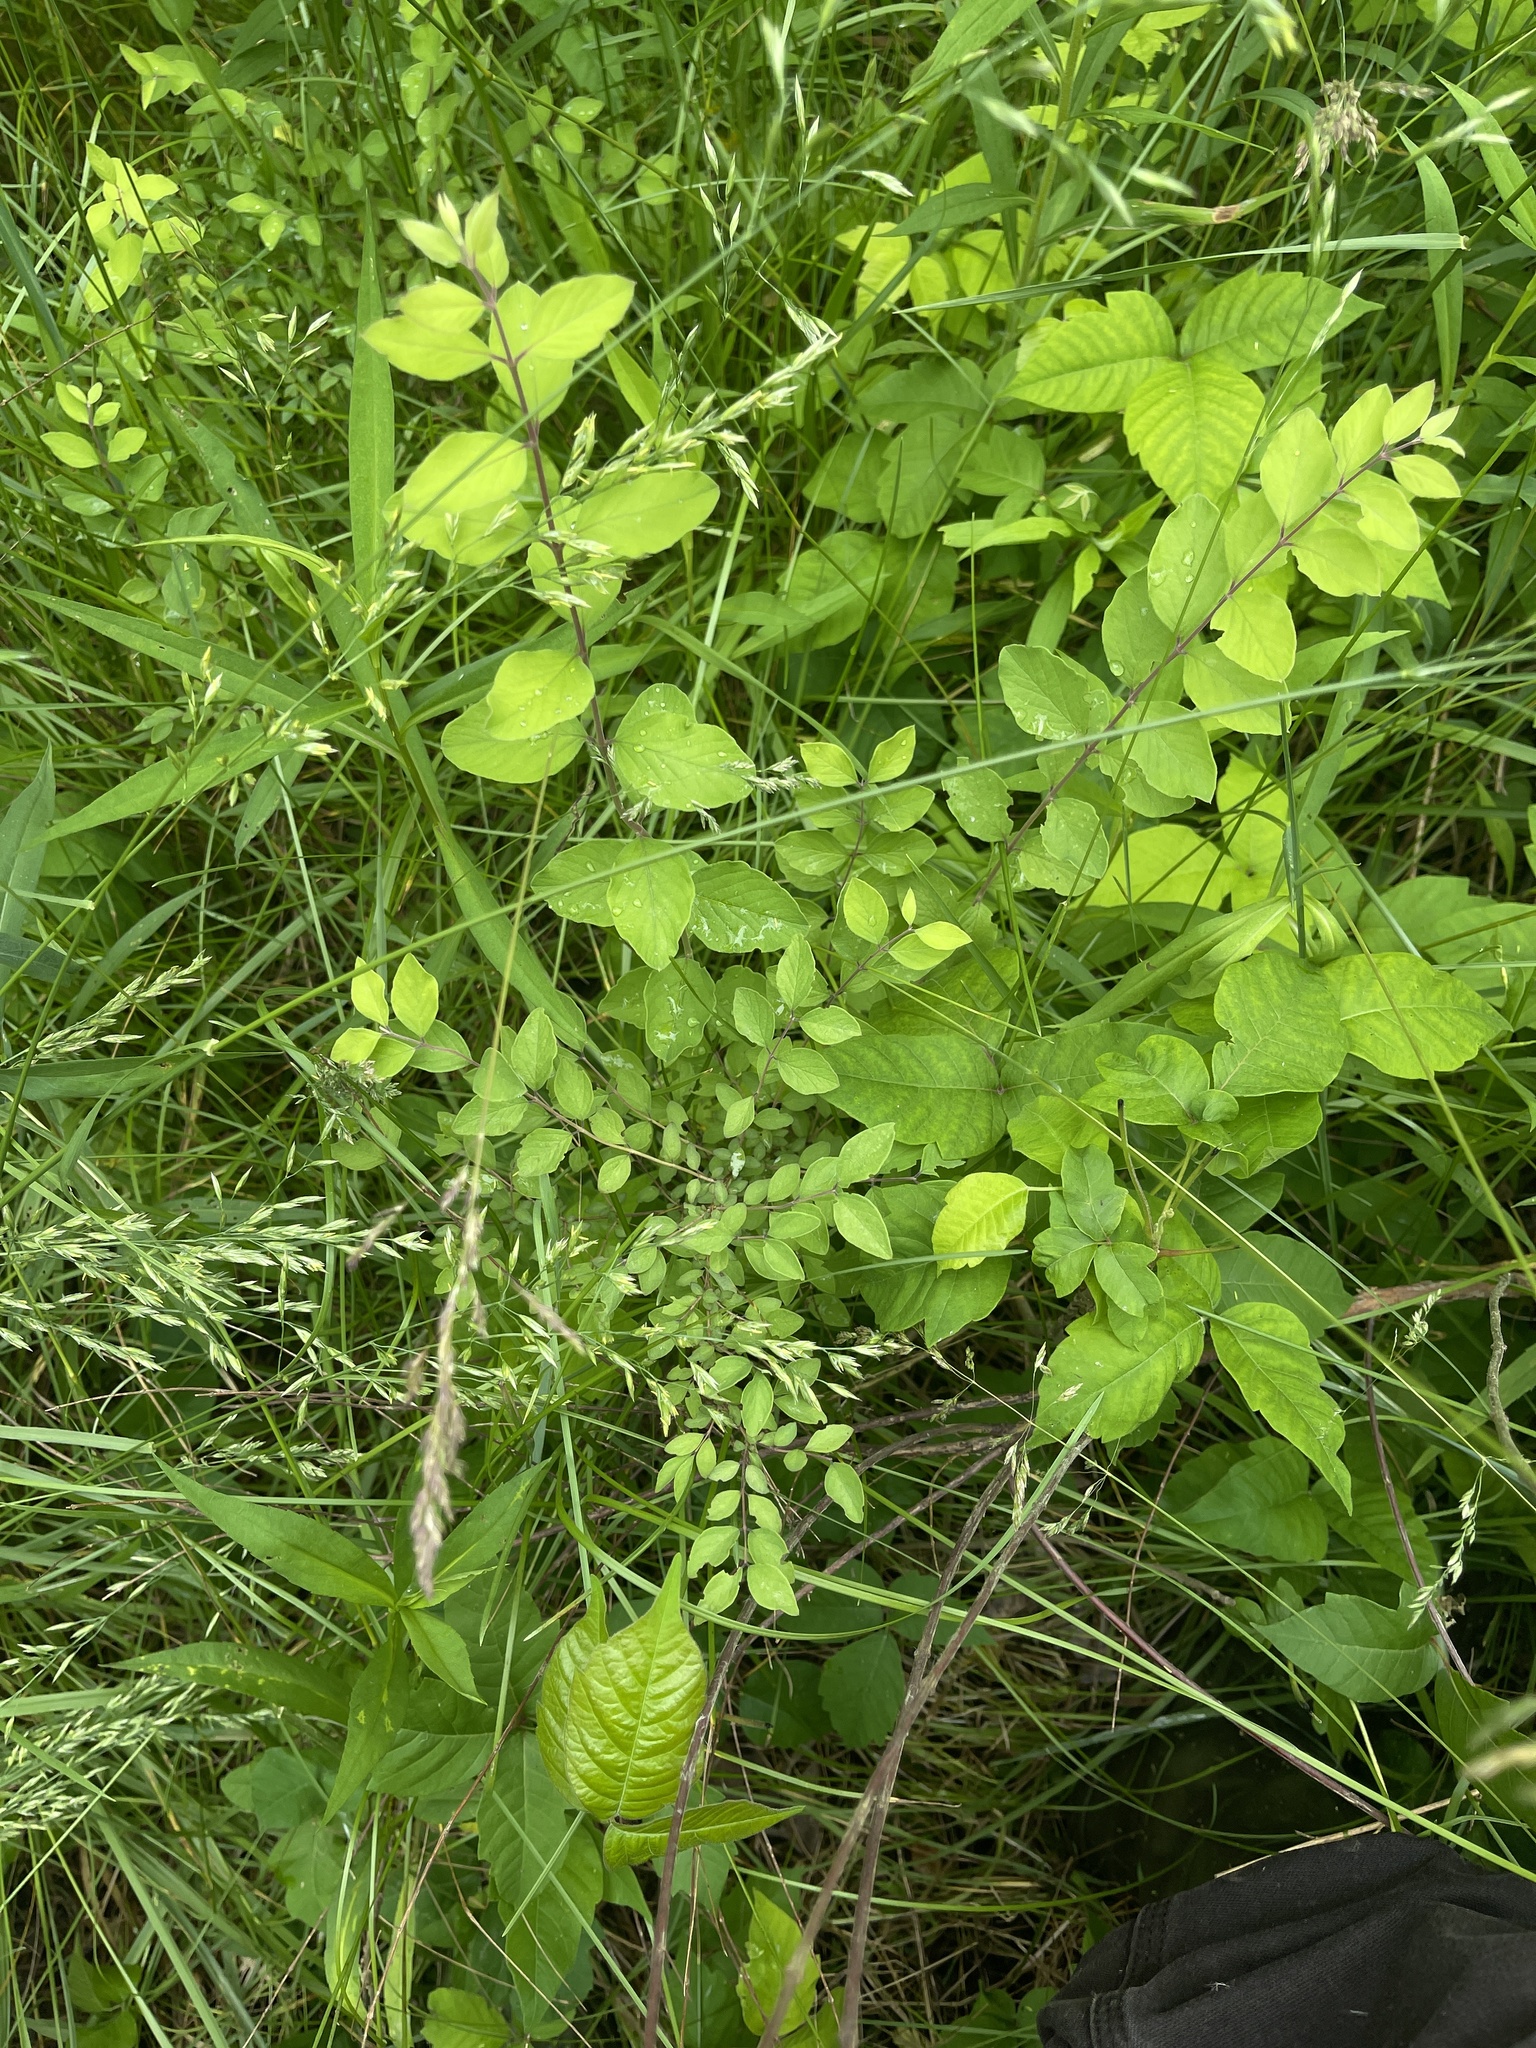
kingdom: Plantae
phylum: Tracheophyta
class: Magnoliopsida
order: Dipsacales
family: Caprifoliaceae
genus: Symphoricarpos
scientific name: Symphoricarpos orbiculatus
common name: Coralberry
